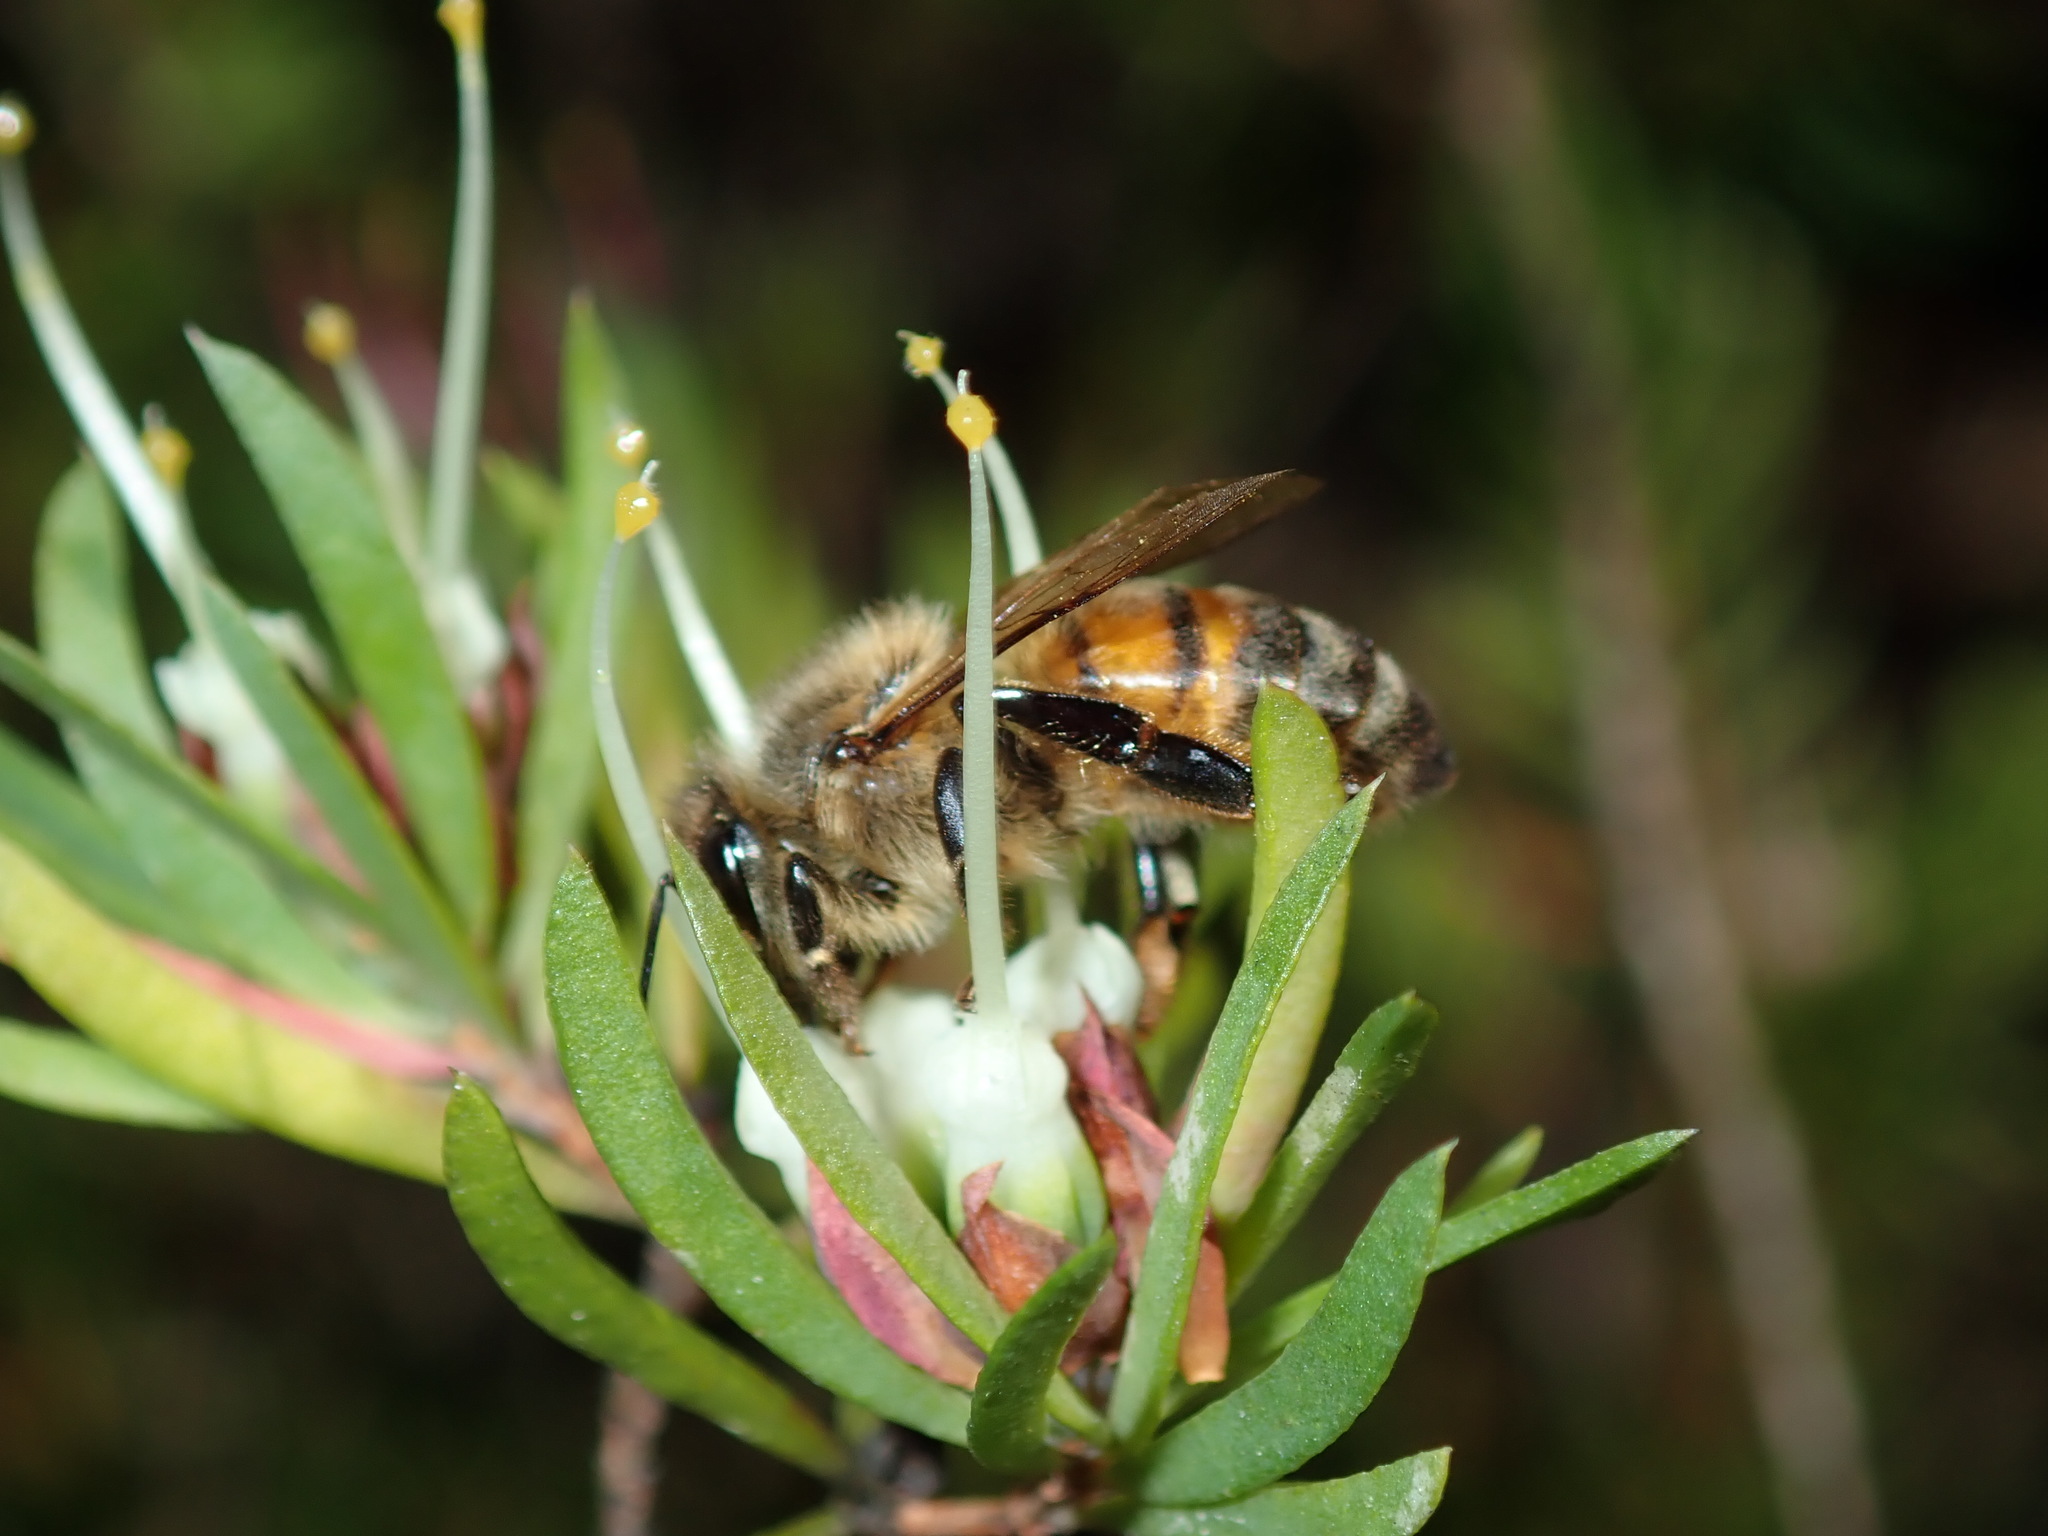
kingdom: Animalia
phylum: Arthropoda
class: Insecta
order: Hymenoptera
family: Apidae
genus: Apis
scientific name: Apis mellifera
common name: Honey bee
